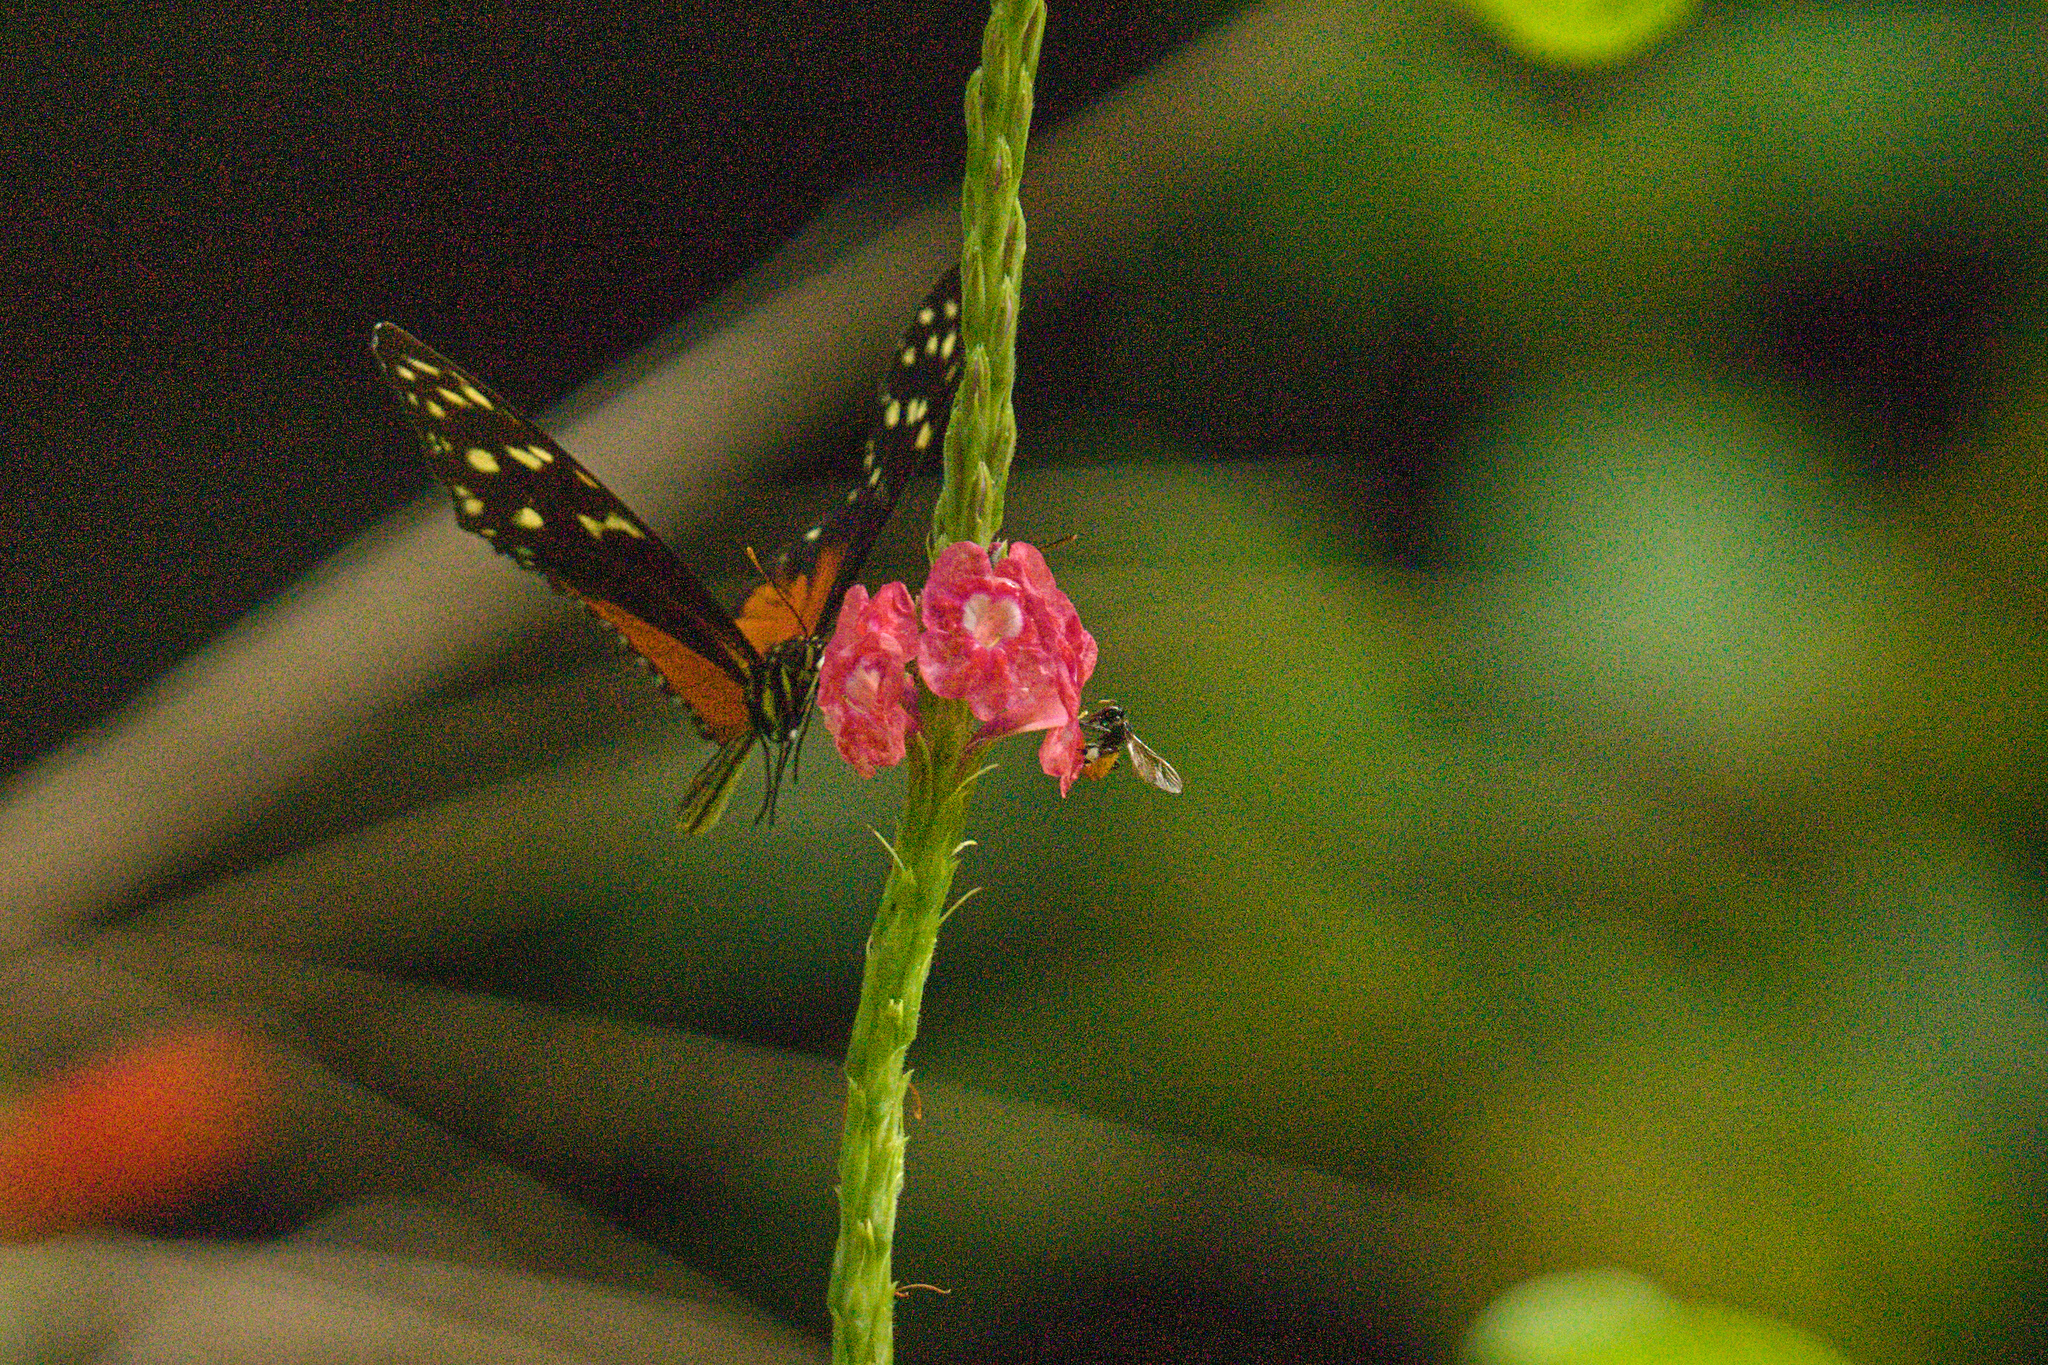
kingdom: Animalia
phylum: Arthropoda
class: Insecta
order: Hymenoptera
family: Apidae
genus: Trigona
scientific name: Trigona fulviventris
